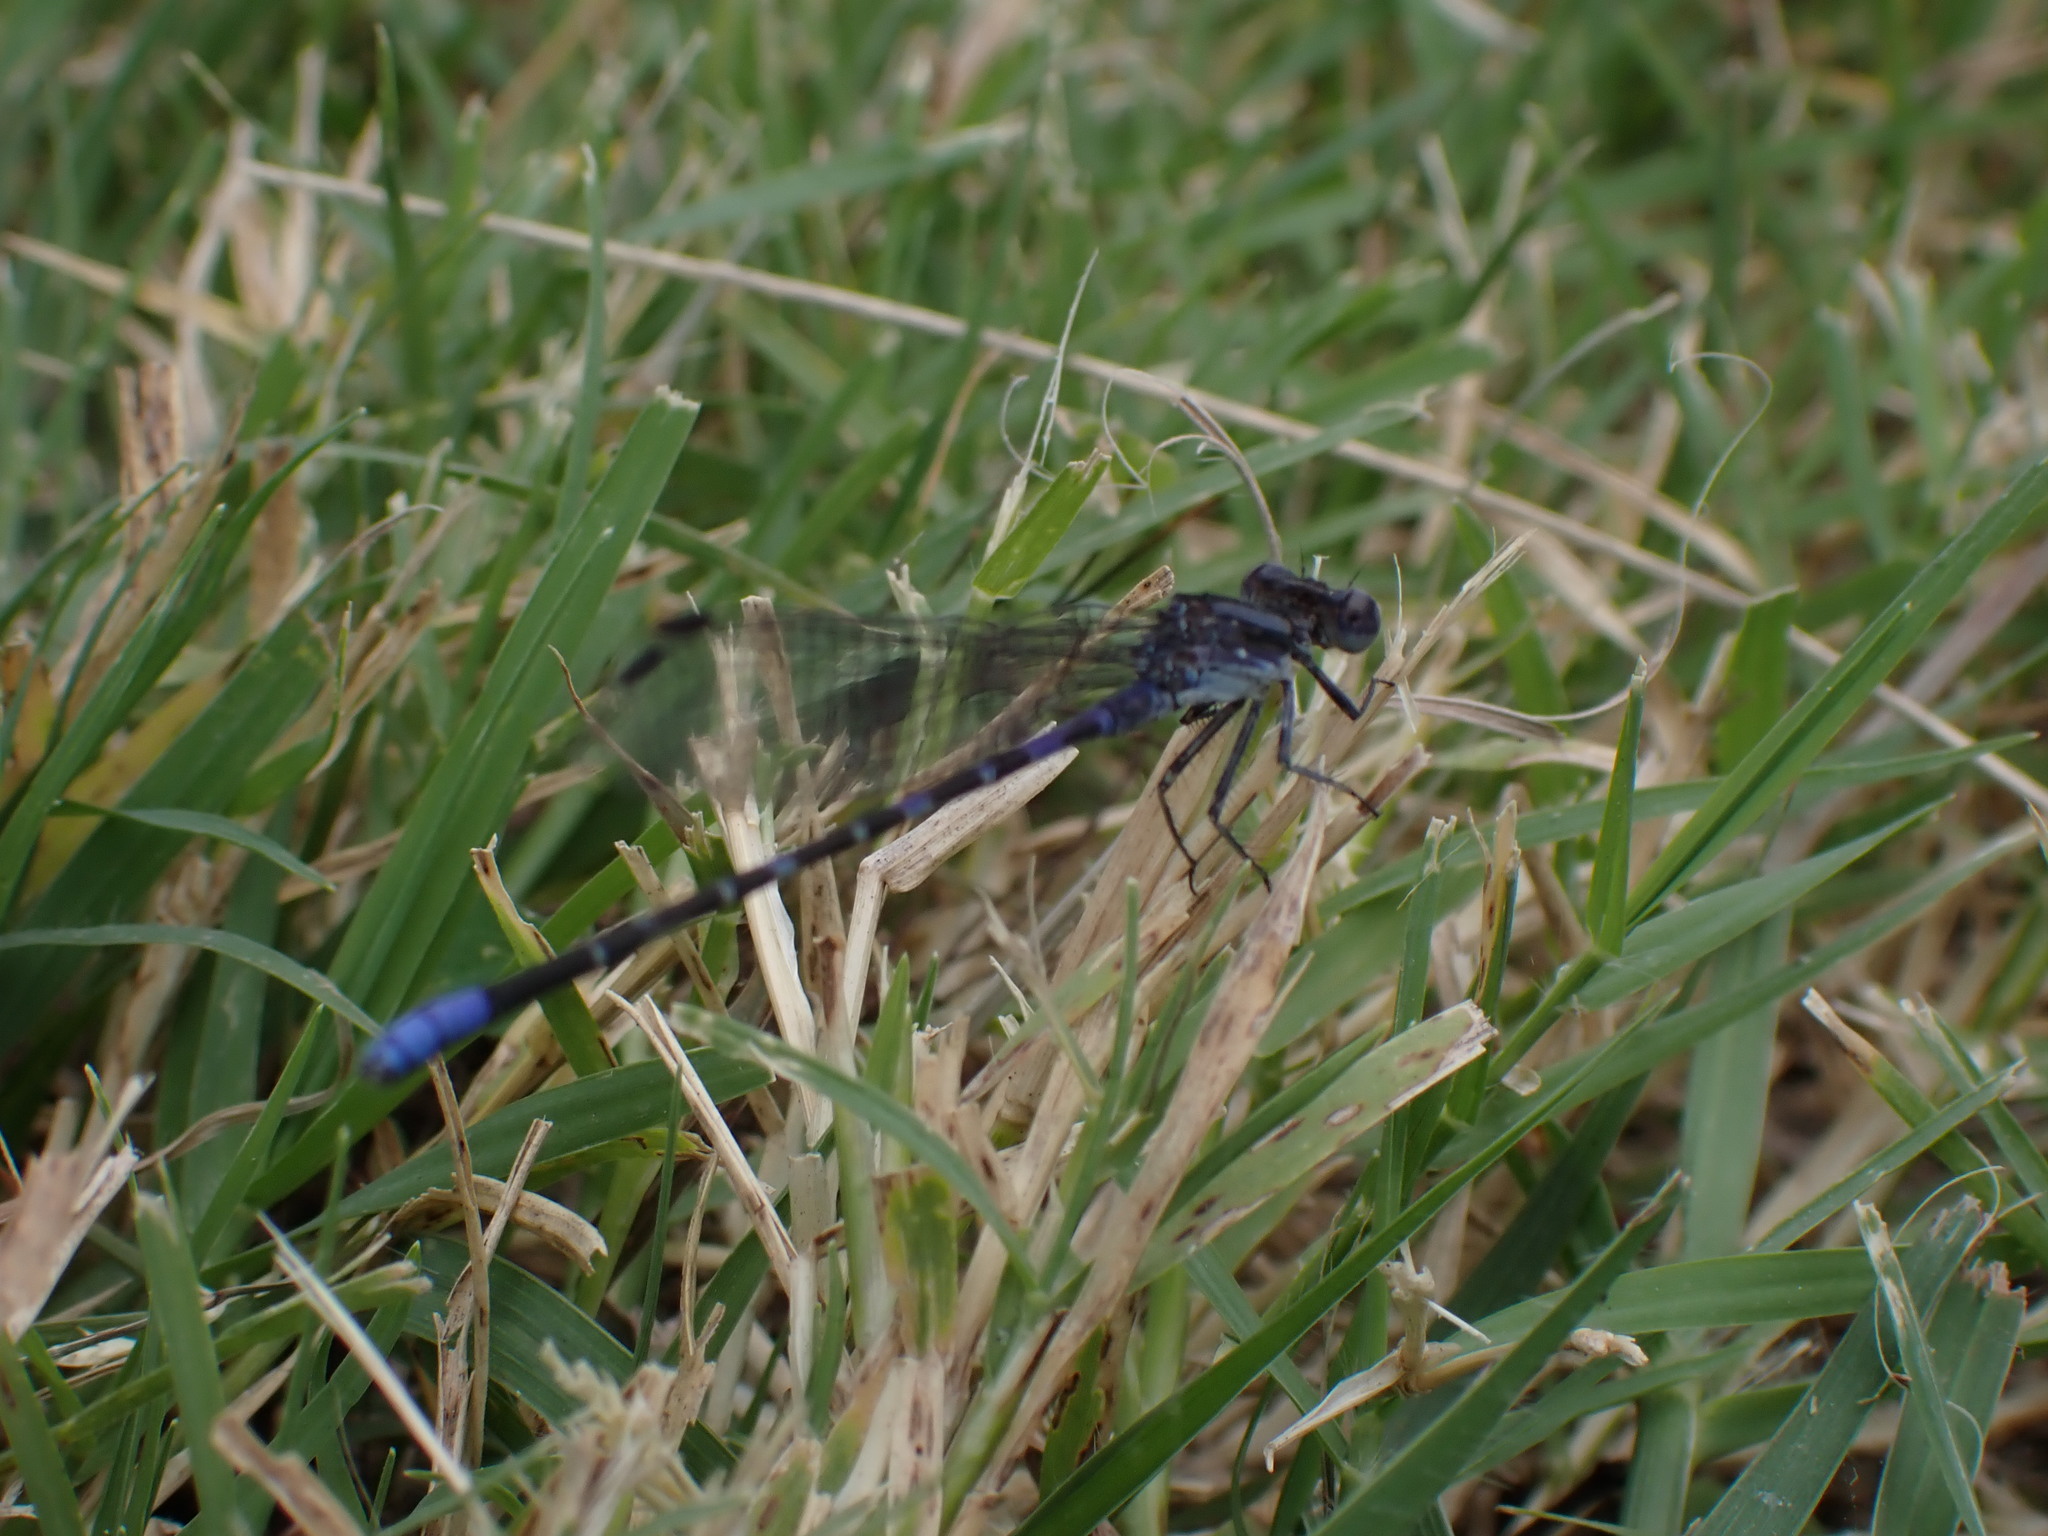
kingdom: Animalia
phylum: Arthropoda
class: Insecta
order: Odonata
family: Coenagrionidae
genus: Argia
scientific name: Argia immunda
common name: Kiowa dancer
